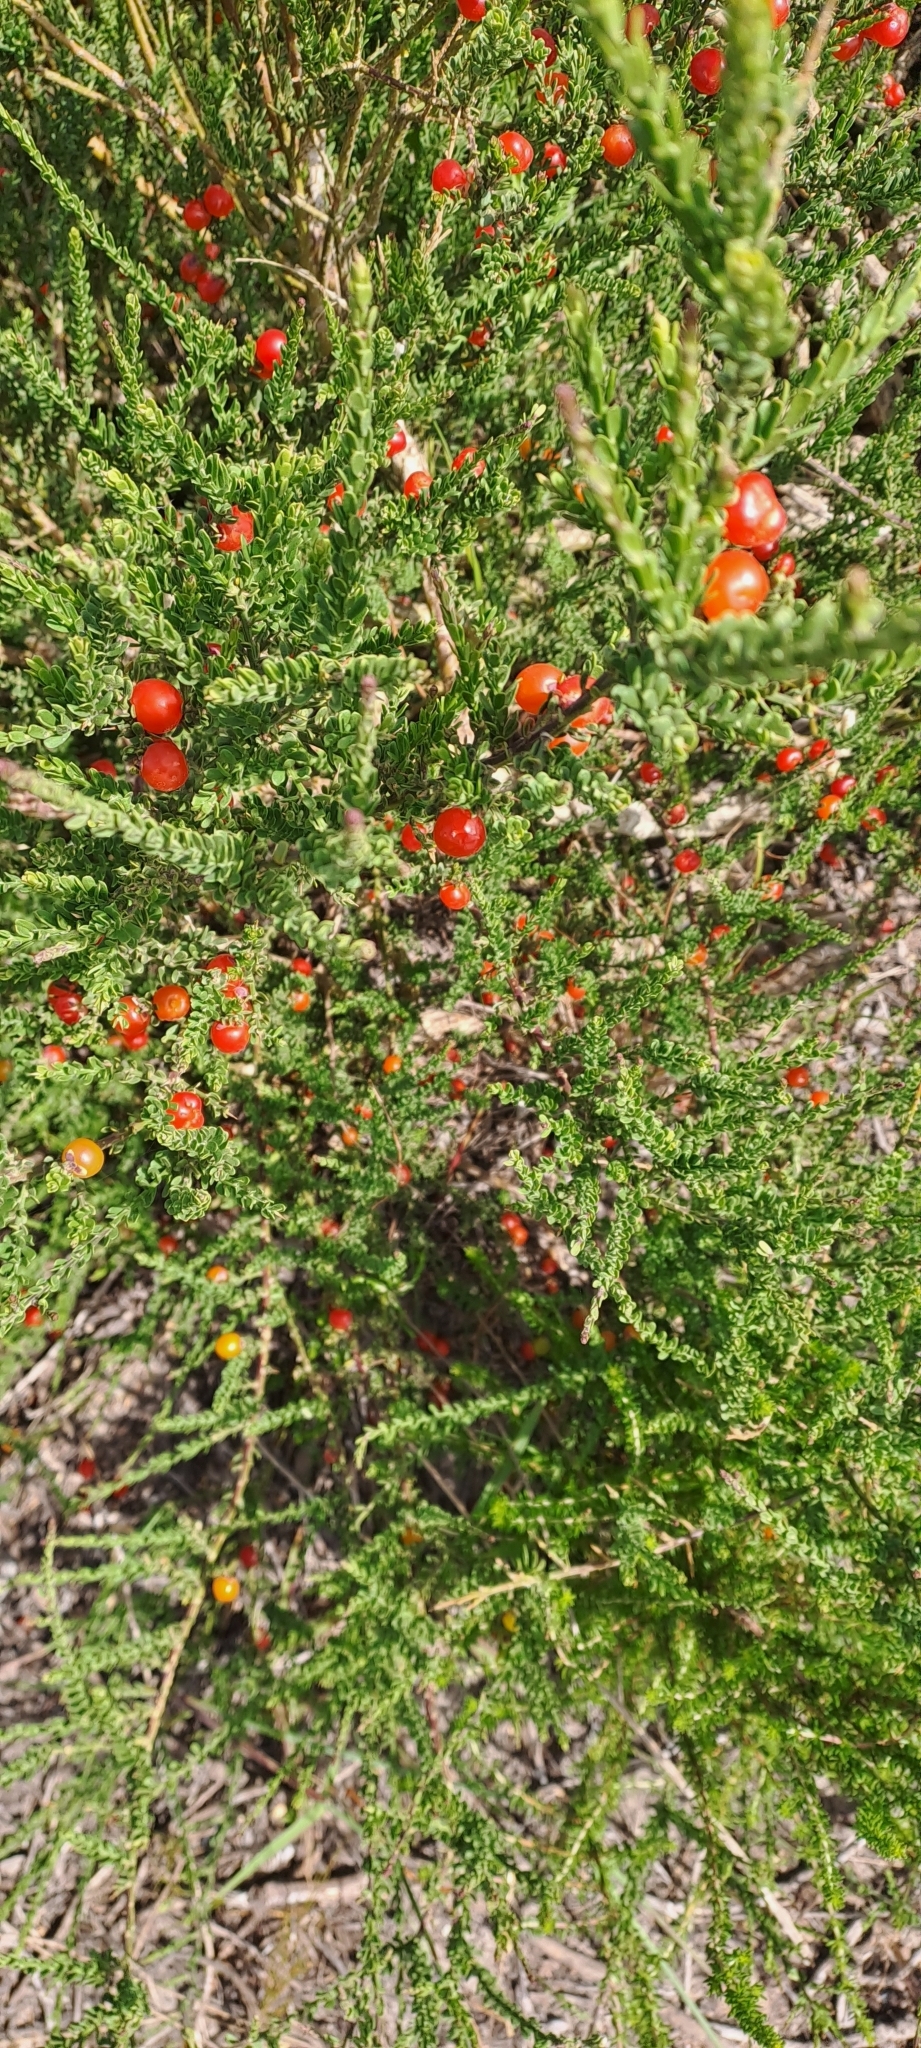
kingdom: Plantae
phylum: Tracheophyta
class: Magnoliopsida
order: Fabales
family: Polygalaceae
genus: Muraltia
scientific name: Muraltia spinosa
